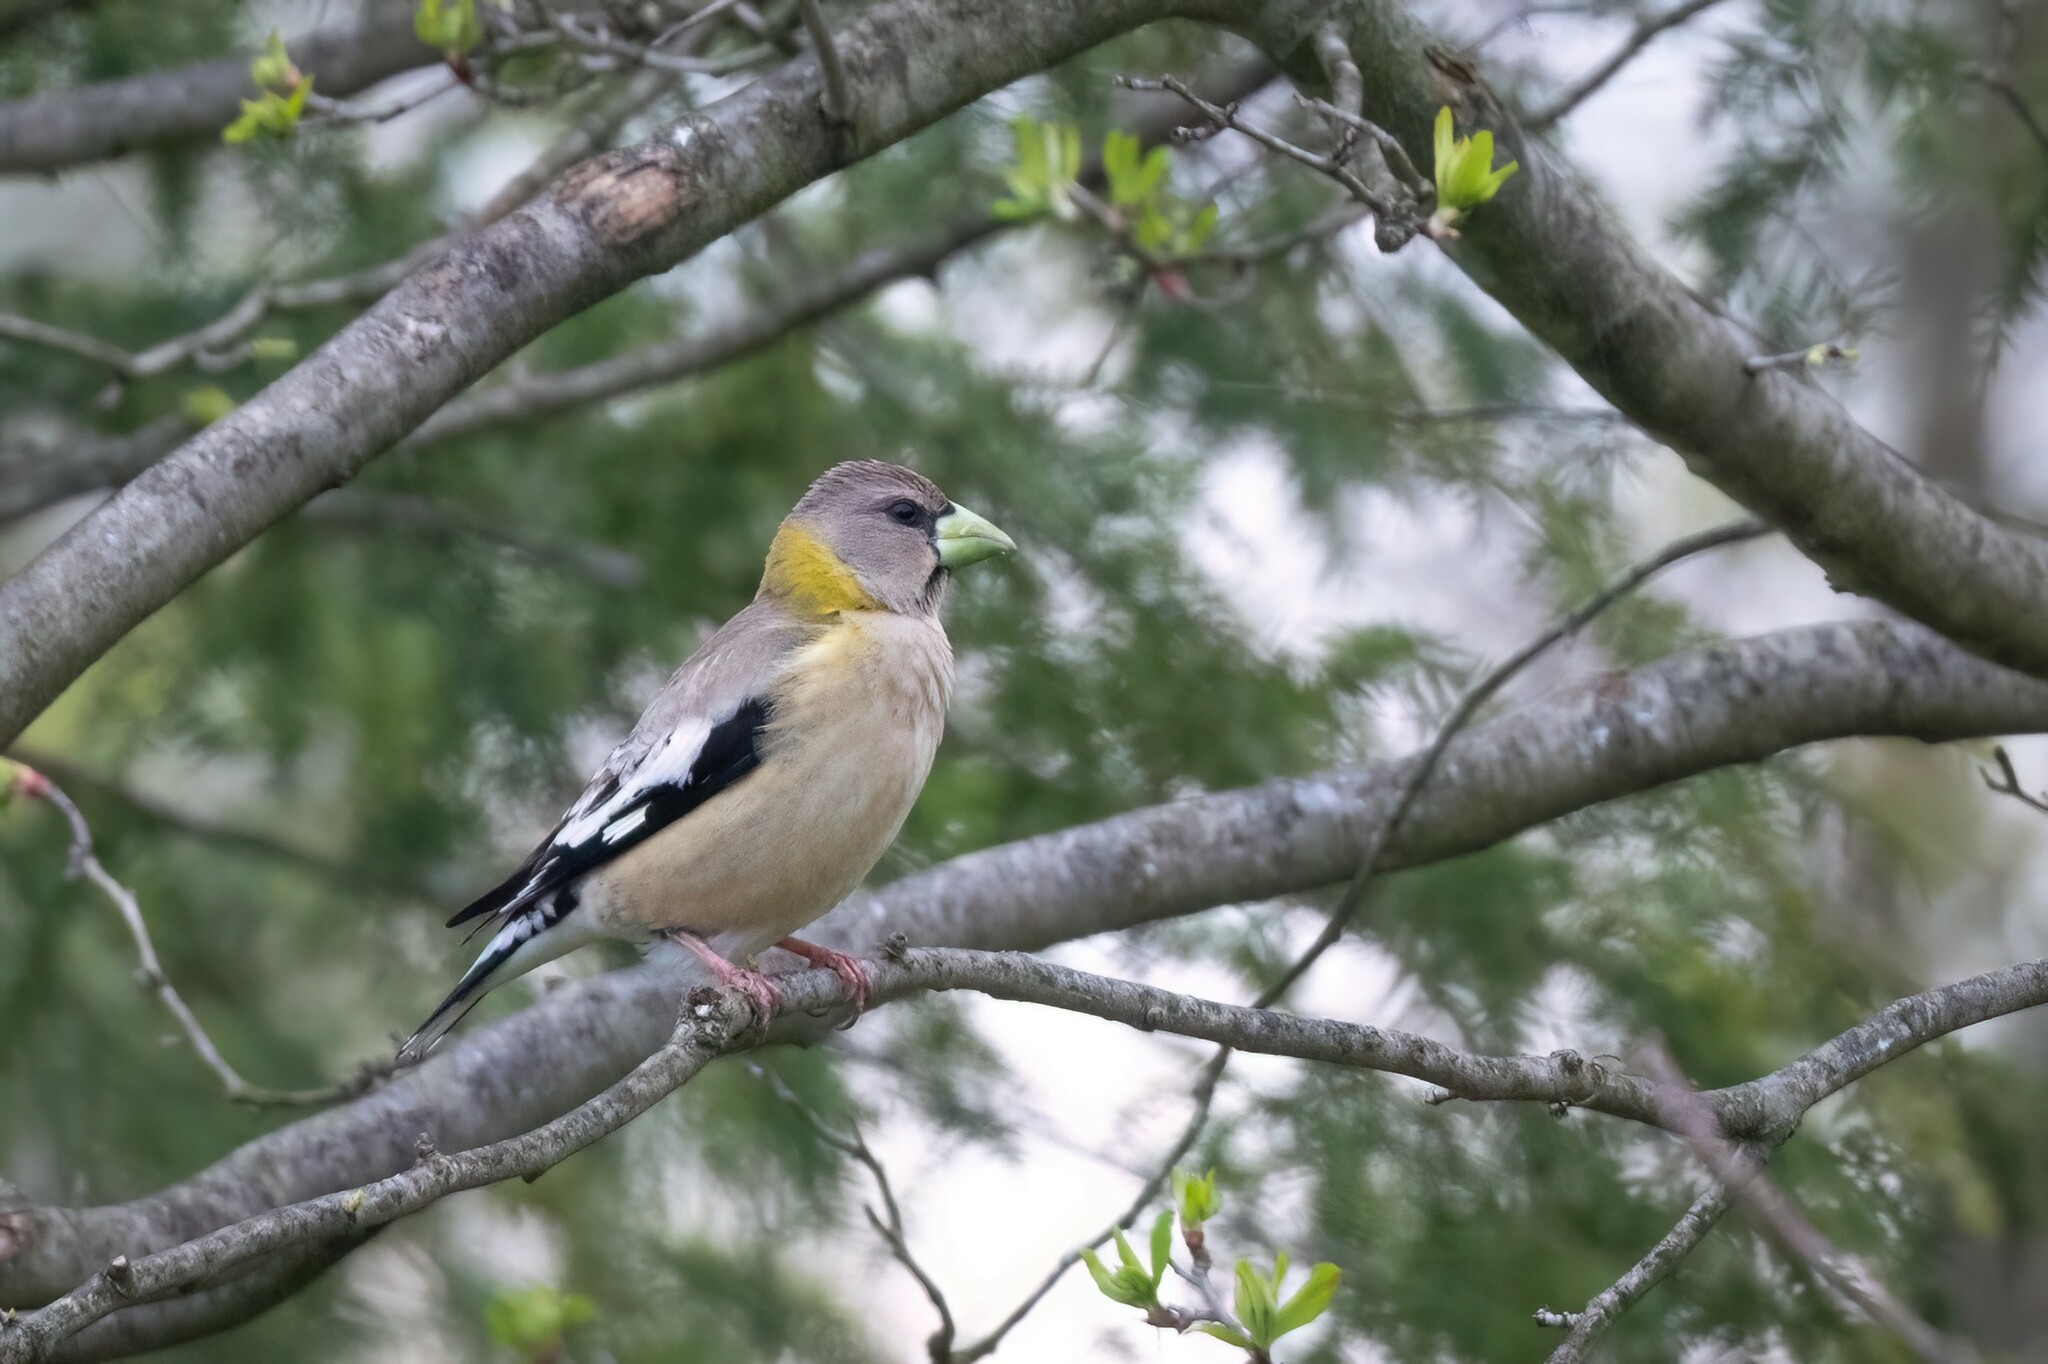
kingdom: Animalia
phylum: Chordata
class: Aves
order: Passeriformes
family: Fringillidae
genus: Hesperiphona
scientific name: Hesperiphona vespertina
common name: Evening grosbeak
